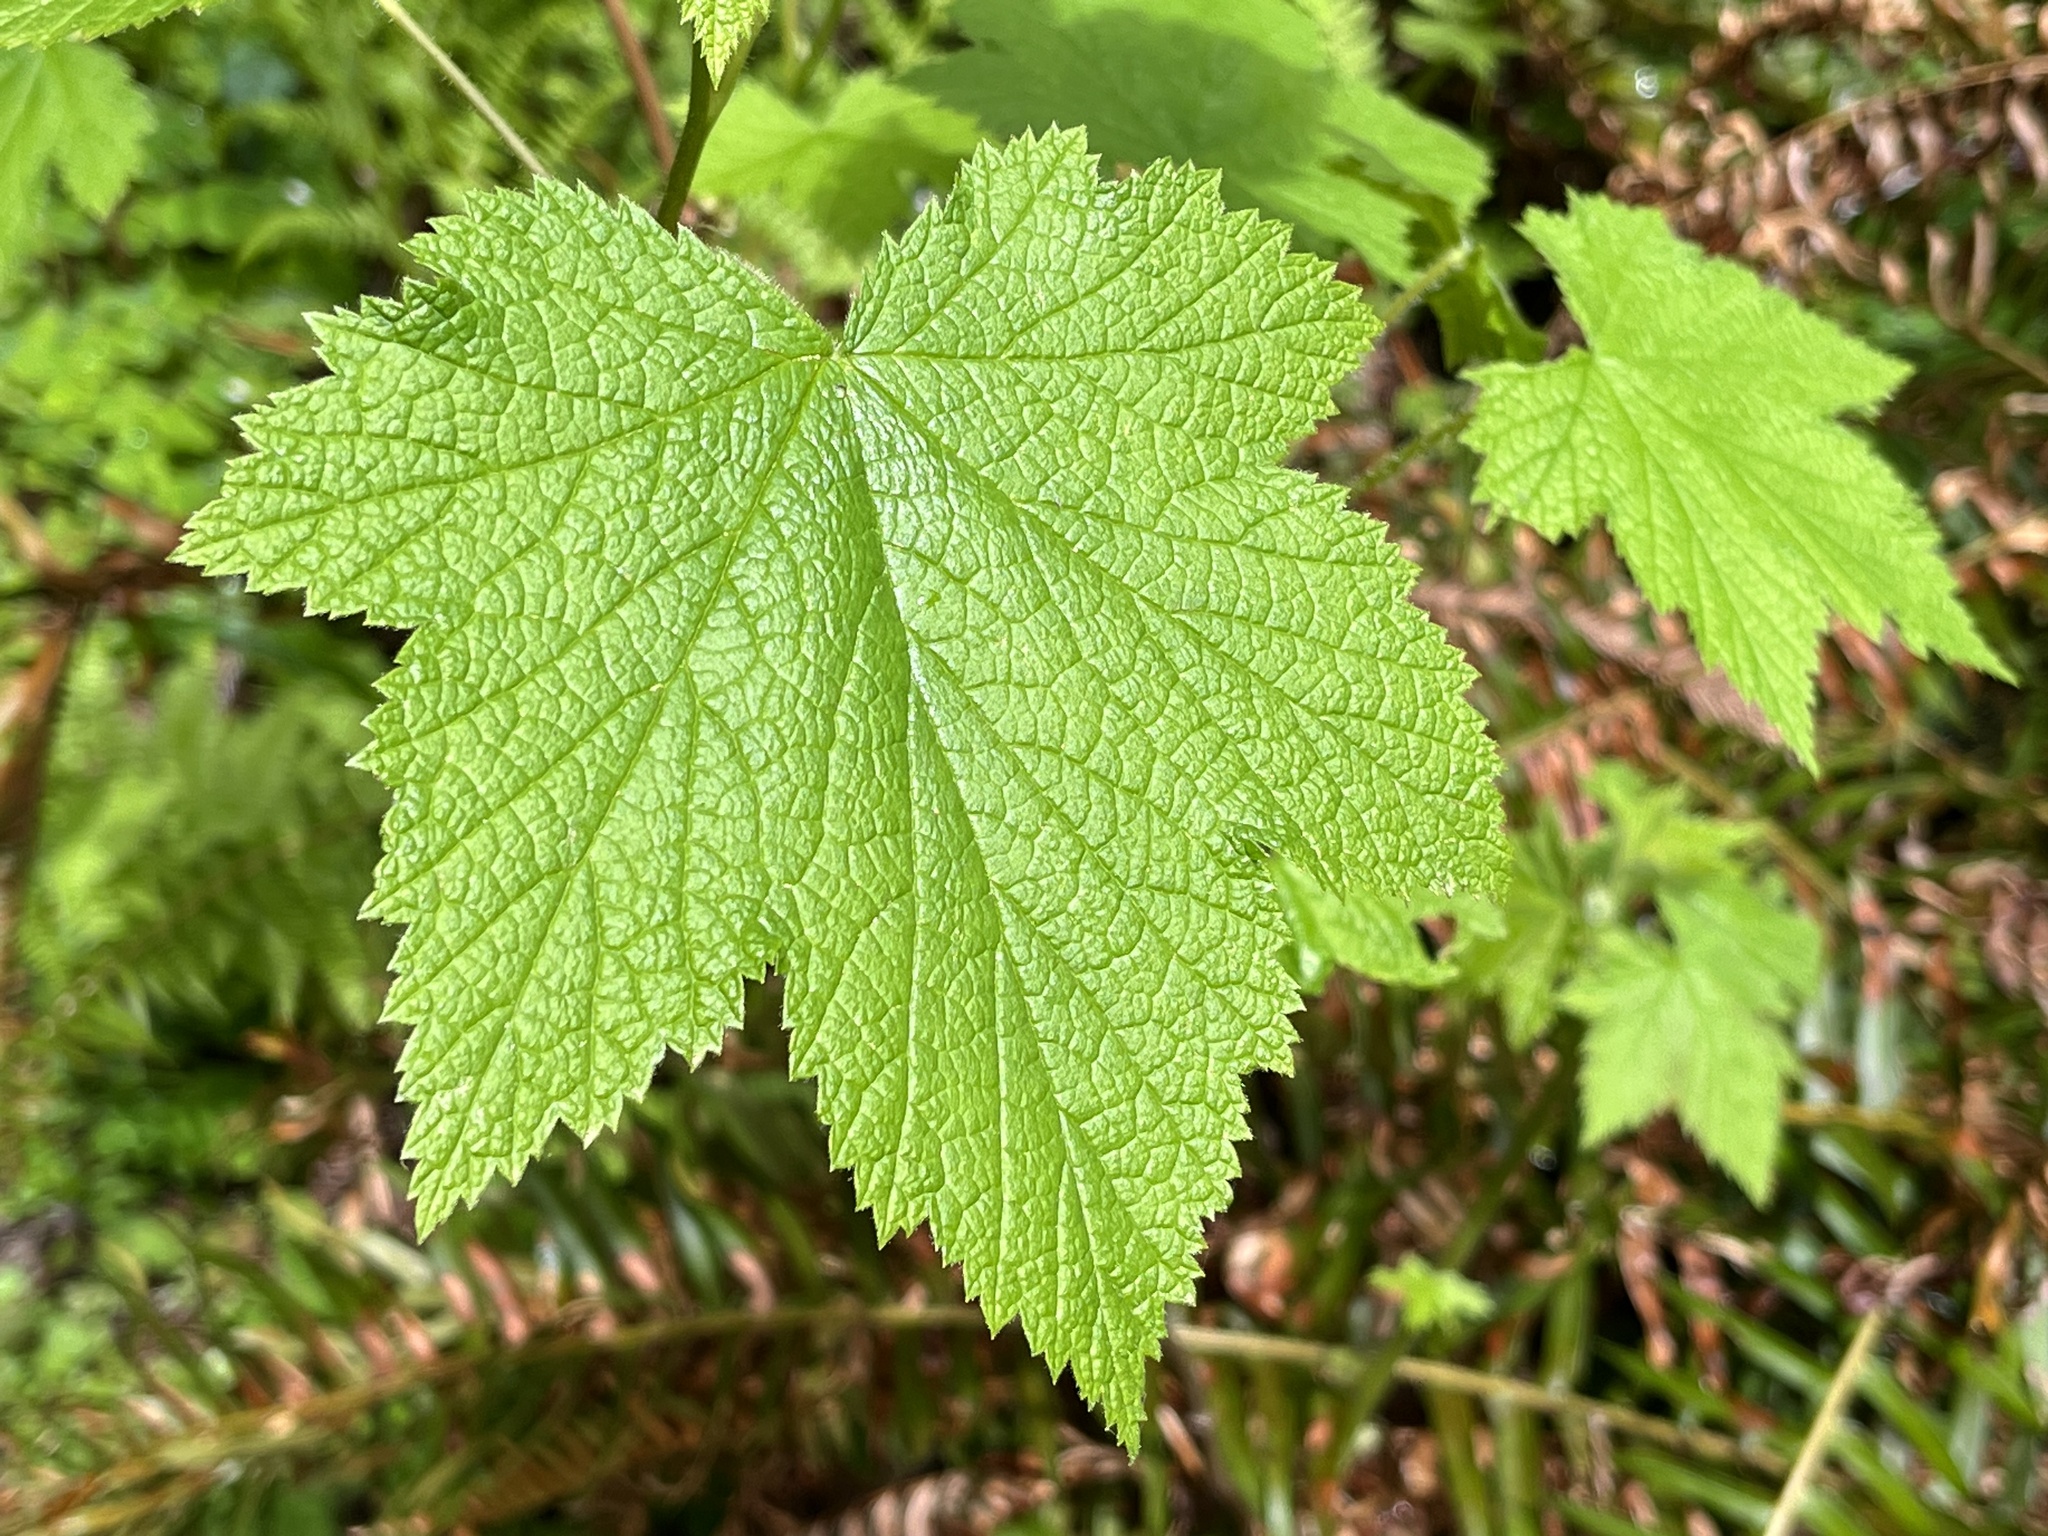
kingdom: Plantae
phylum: Tracheophyta
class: Magnoliopsida
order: Rosales
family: Rosaceae
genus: Rubus
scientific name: Rubus spectabilis
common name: Salmonberry
